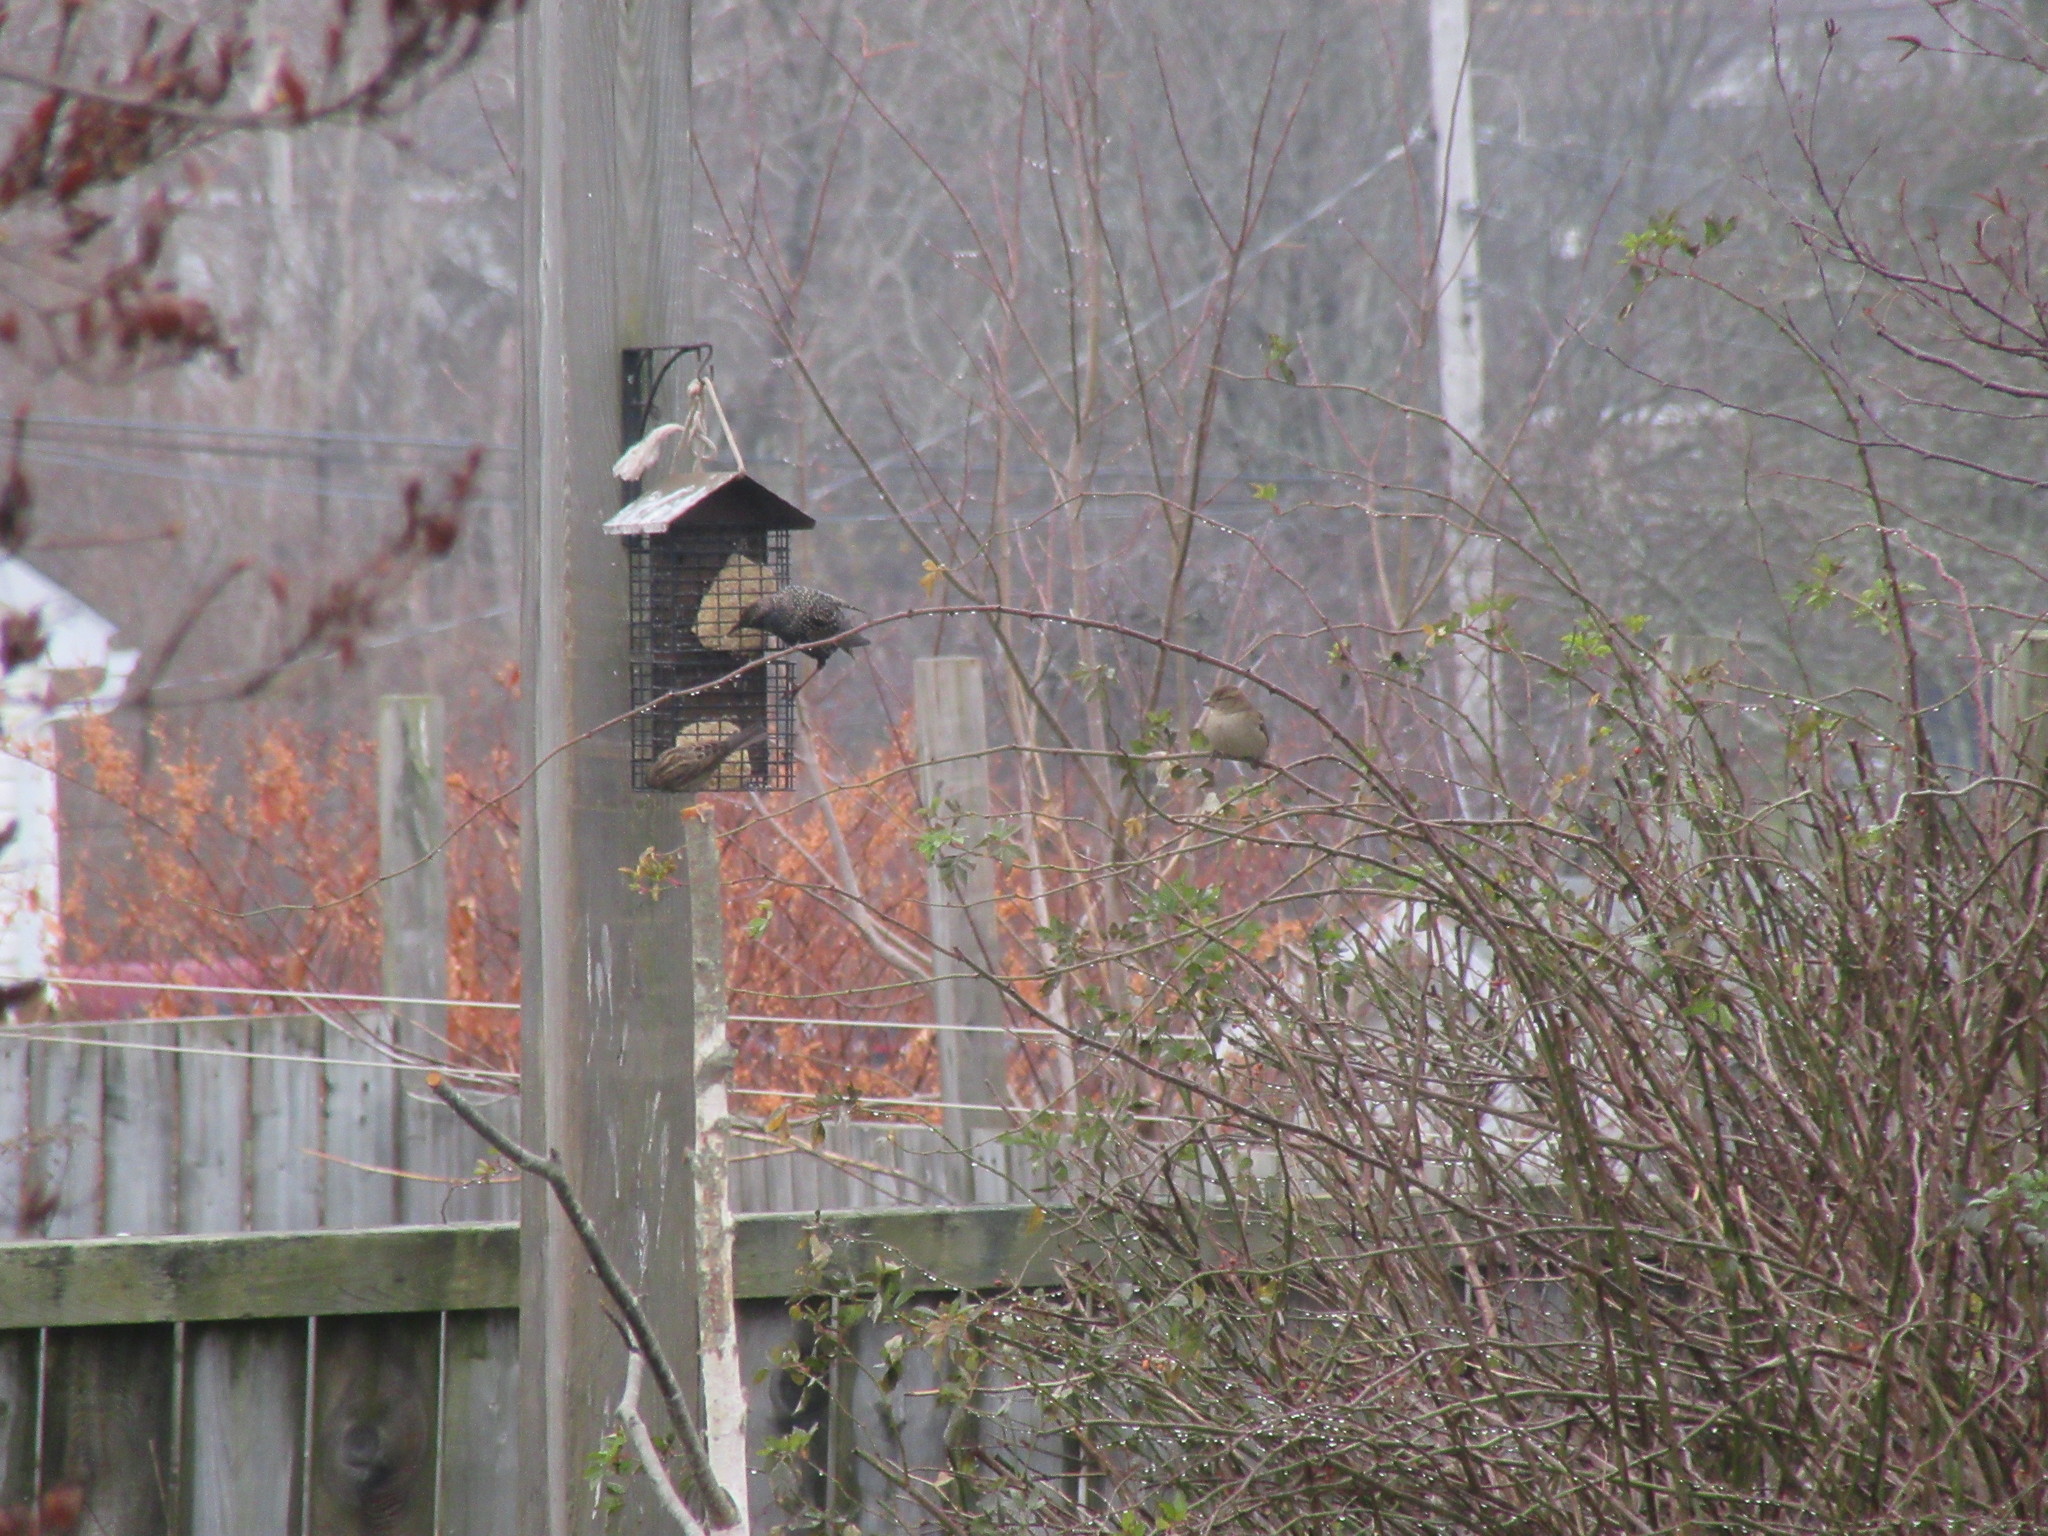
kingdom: Animalia
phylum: Chordata
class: Aves
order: Passeriformes
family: Sturnidae
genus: Sturnus
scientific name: Sturnus vulgaris
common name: Common starling
